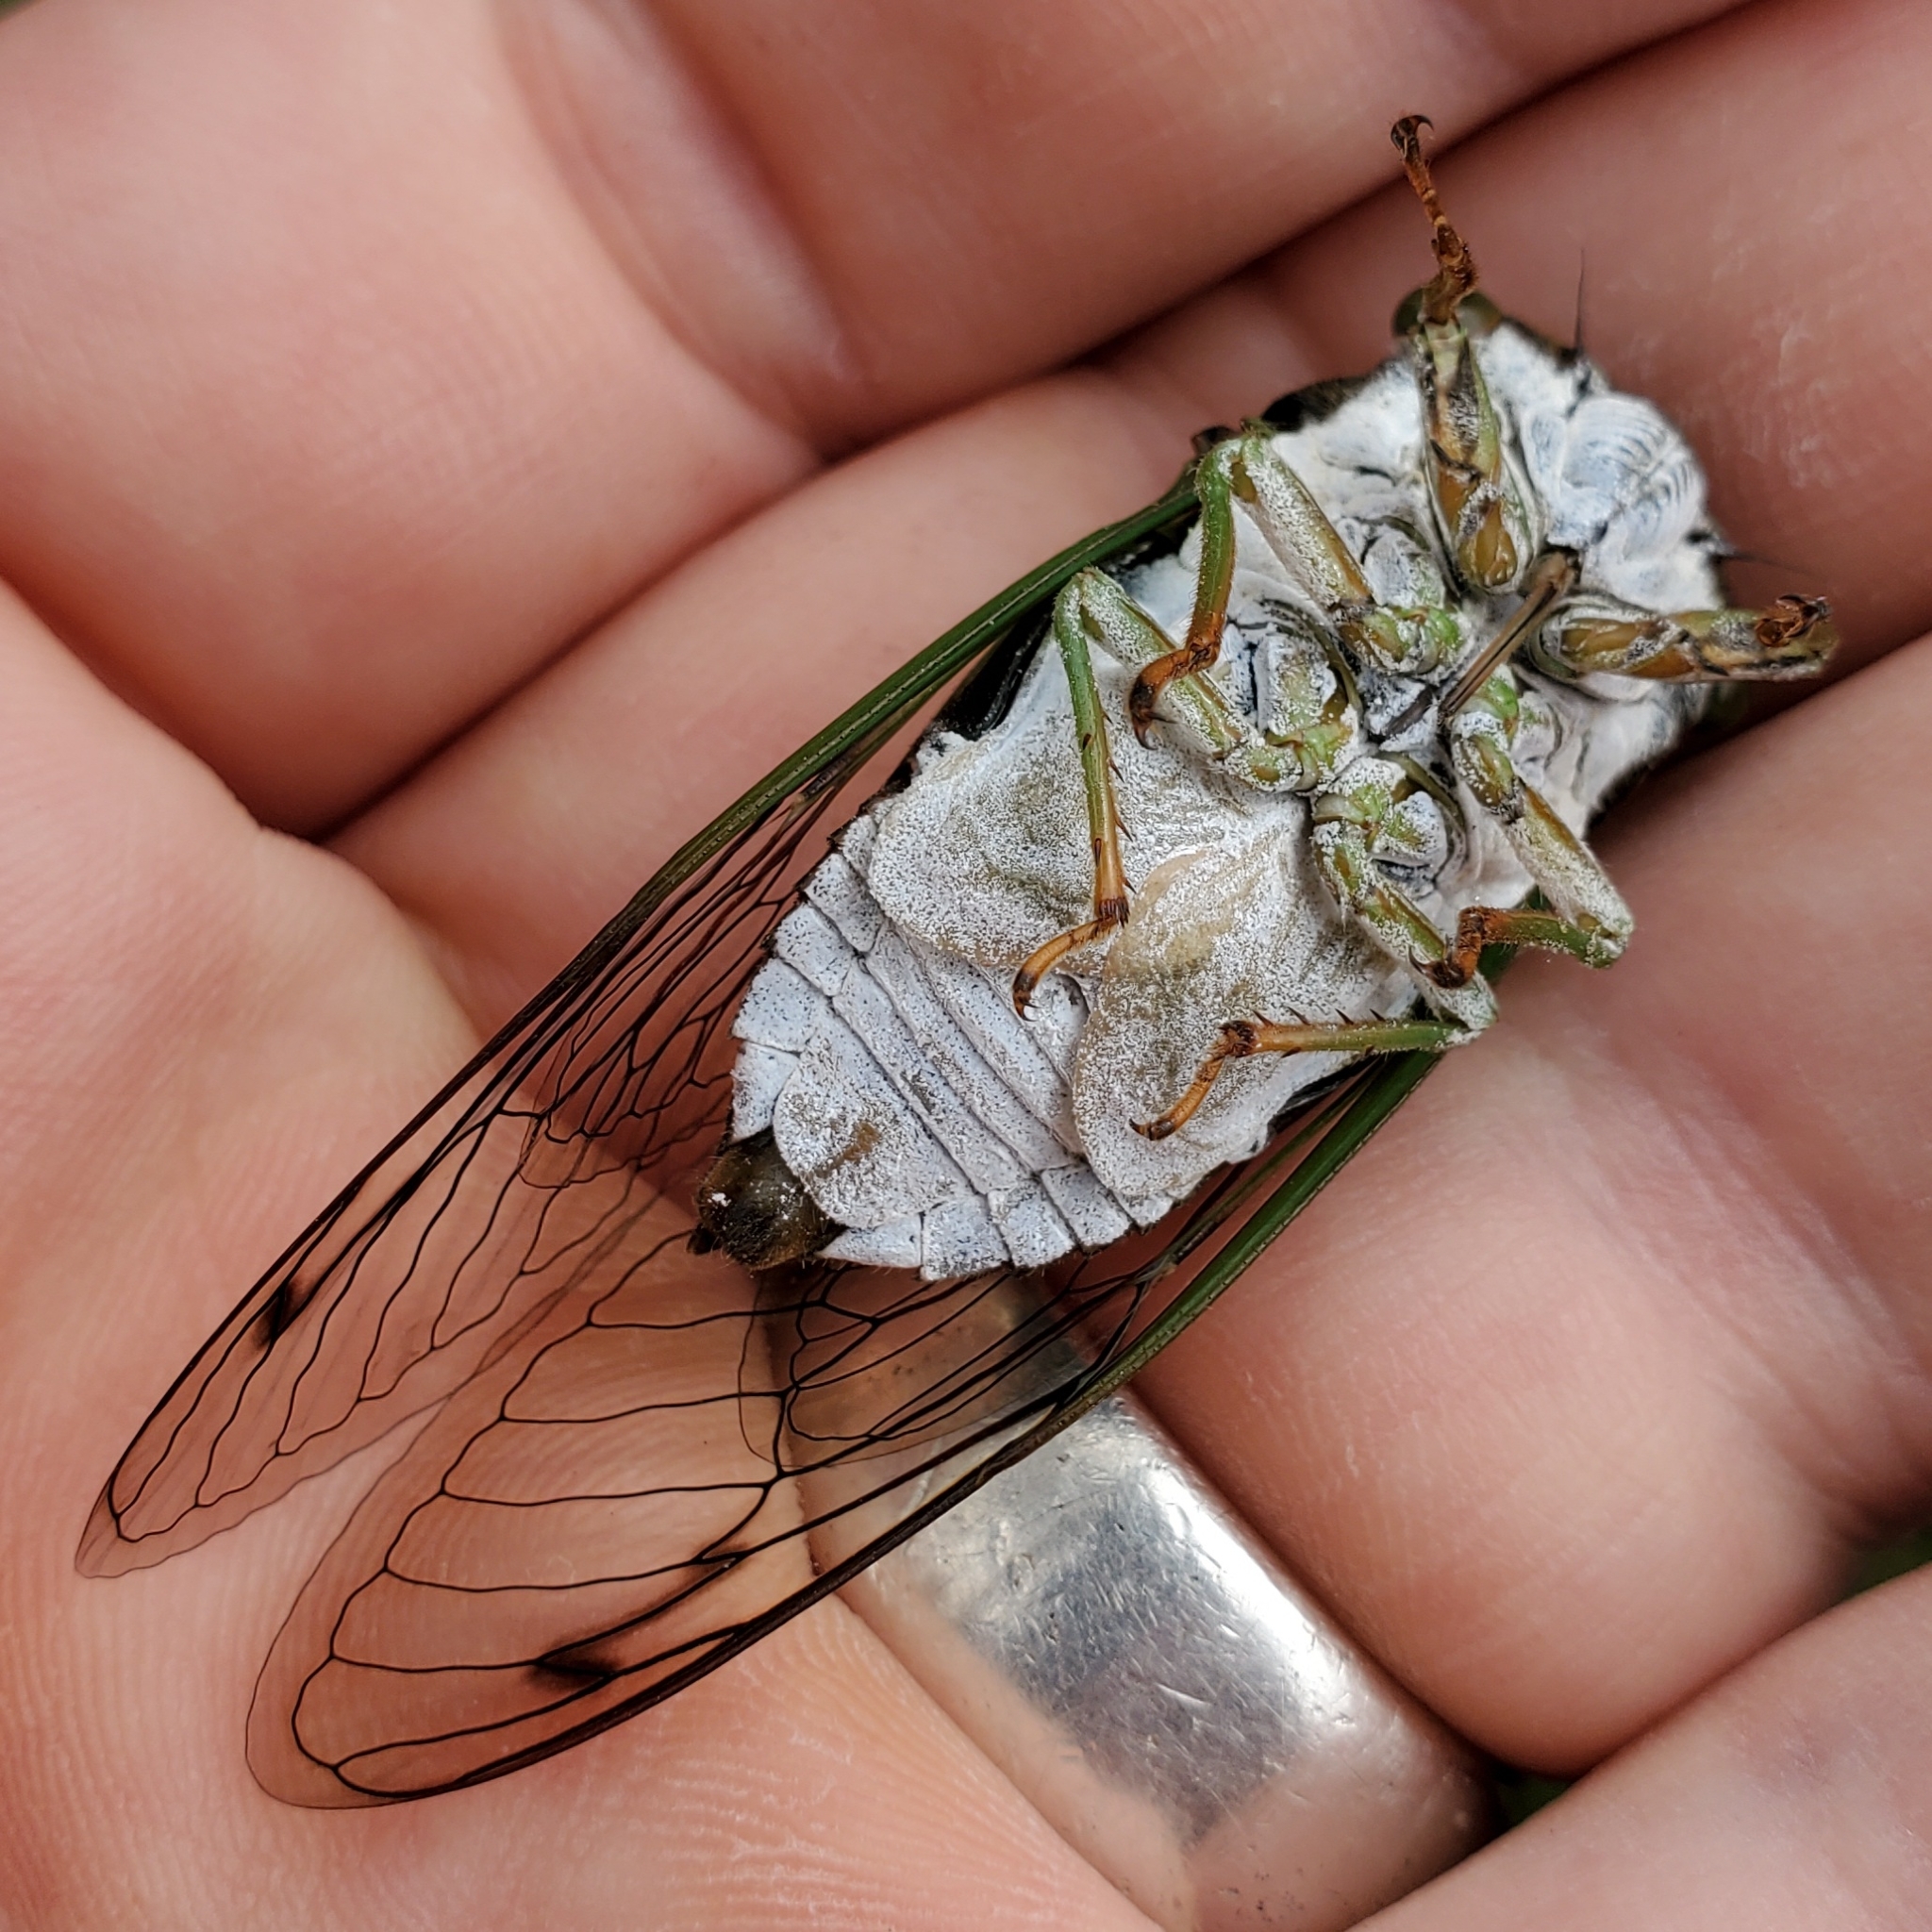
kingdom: Animalia
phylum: Arthropoda
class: Insecta
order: Hemiptera
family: Cicadidae
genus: Neotibicen
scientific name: Neotibicen tibicen
